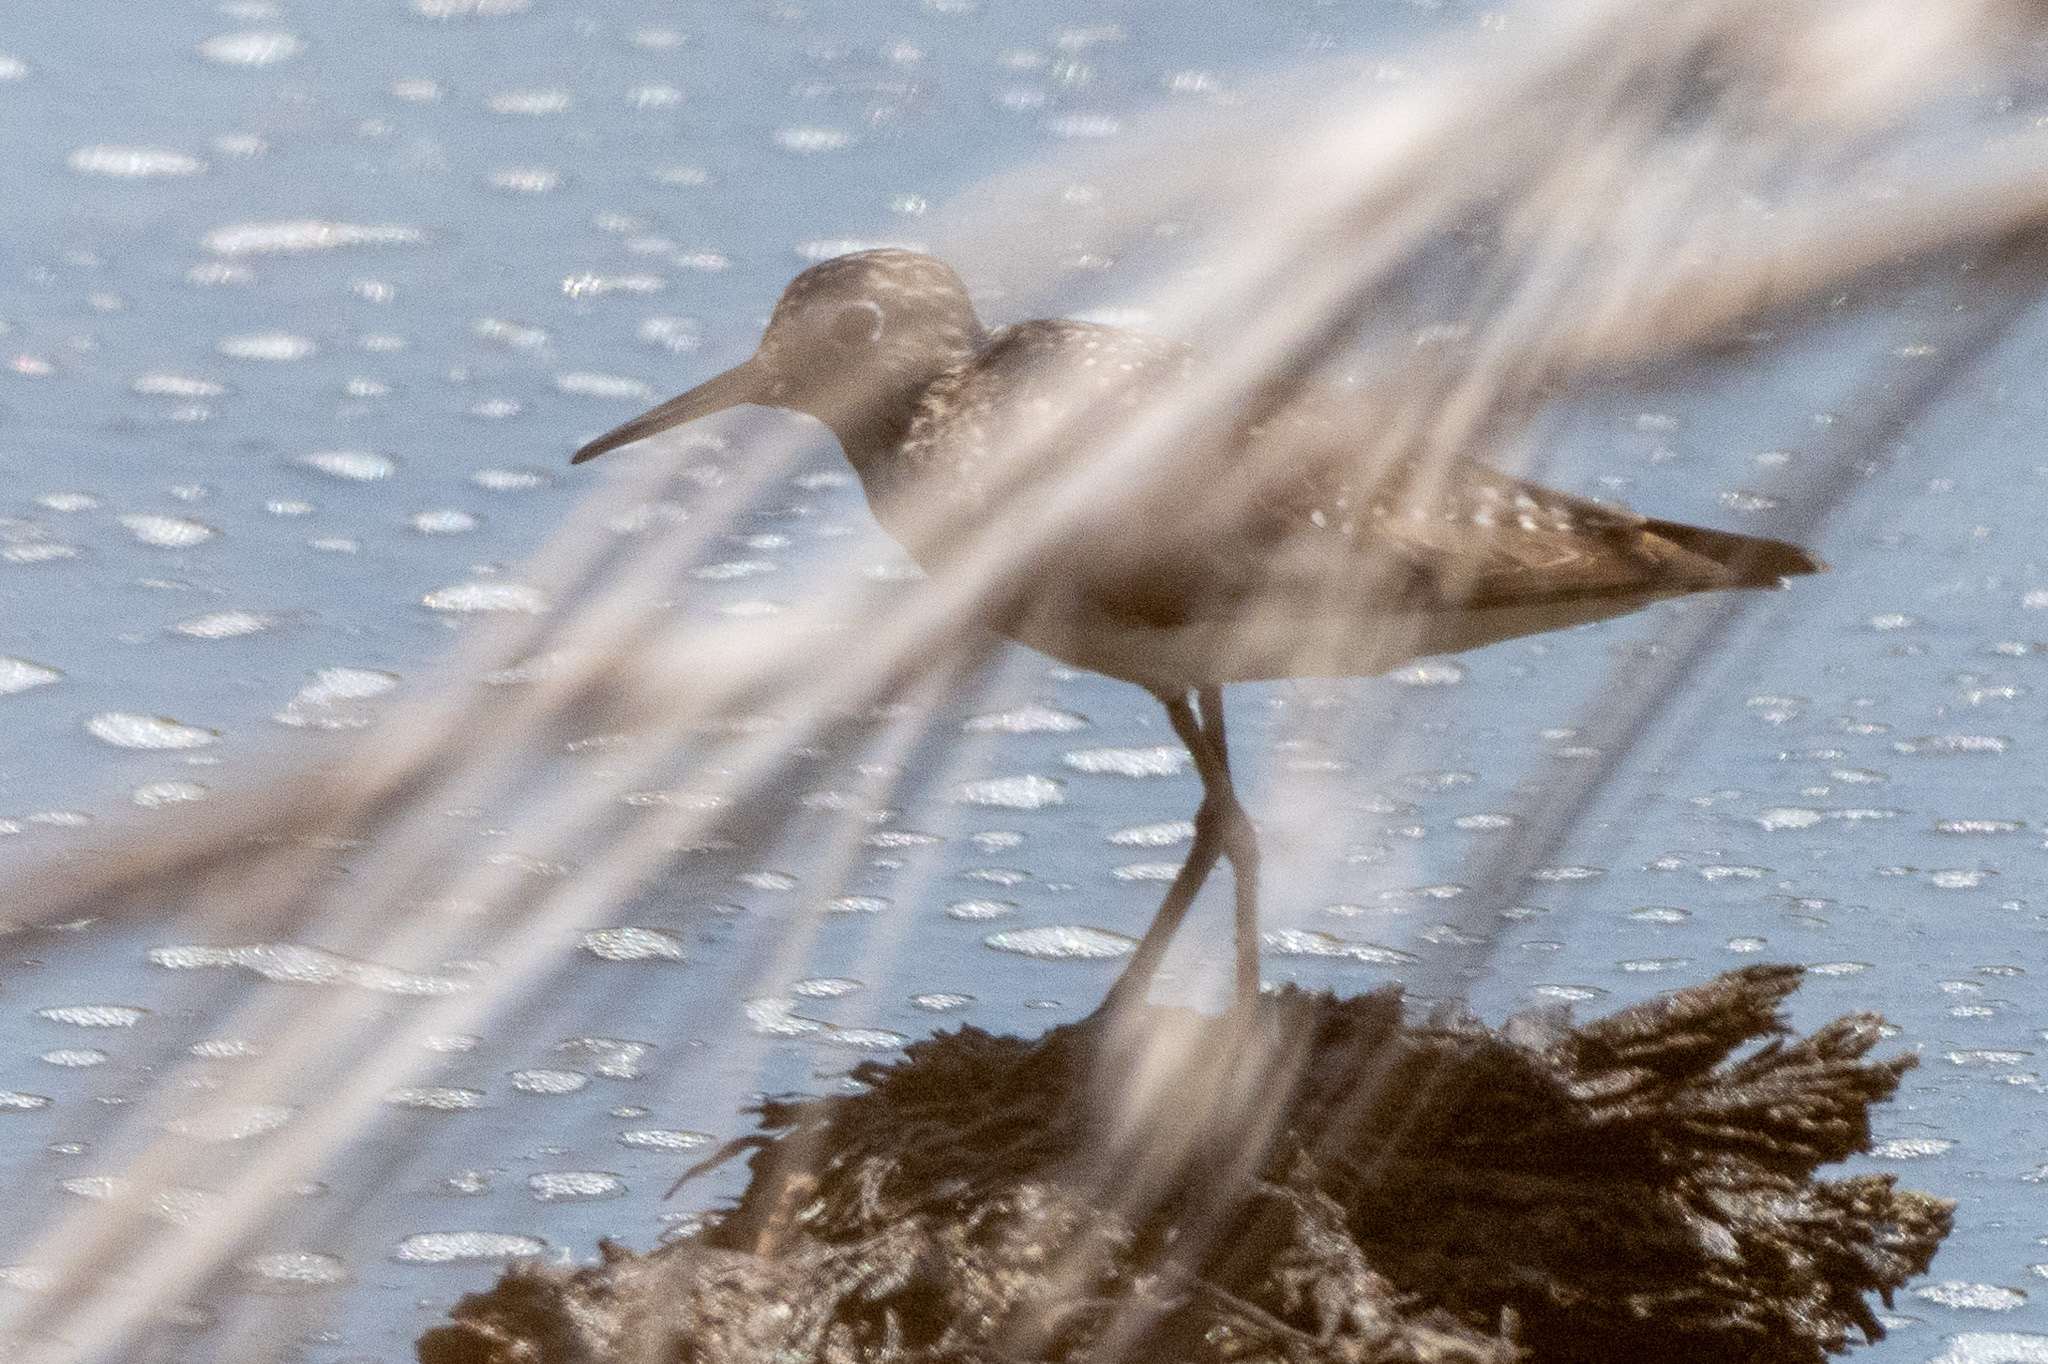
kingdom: Animalia
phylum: Chordata
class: Aves
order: Charadriiformes
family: Scolopacidae
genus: Actitis
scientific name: Actitis macularius
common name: Spotted sandpiper
